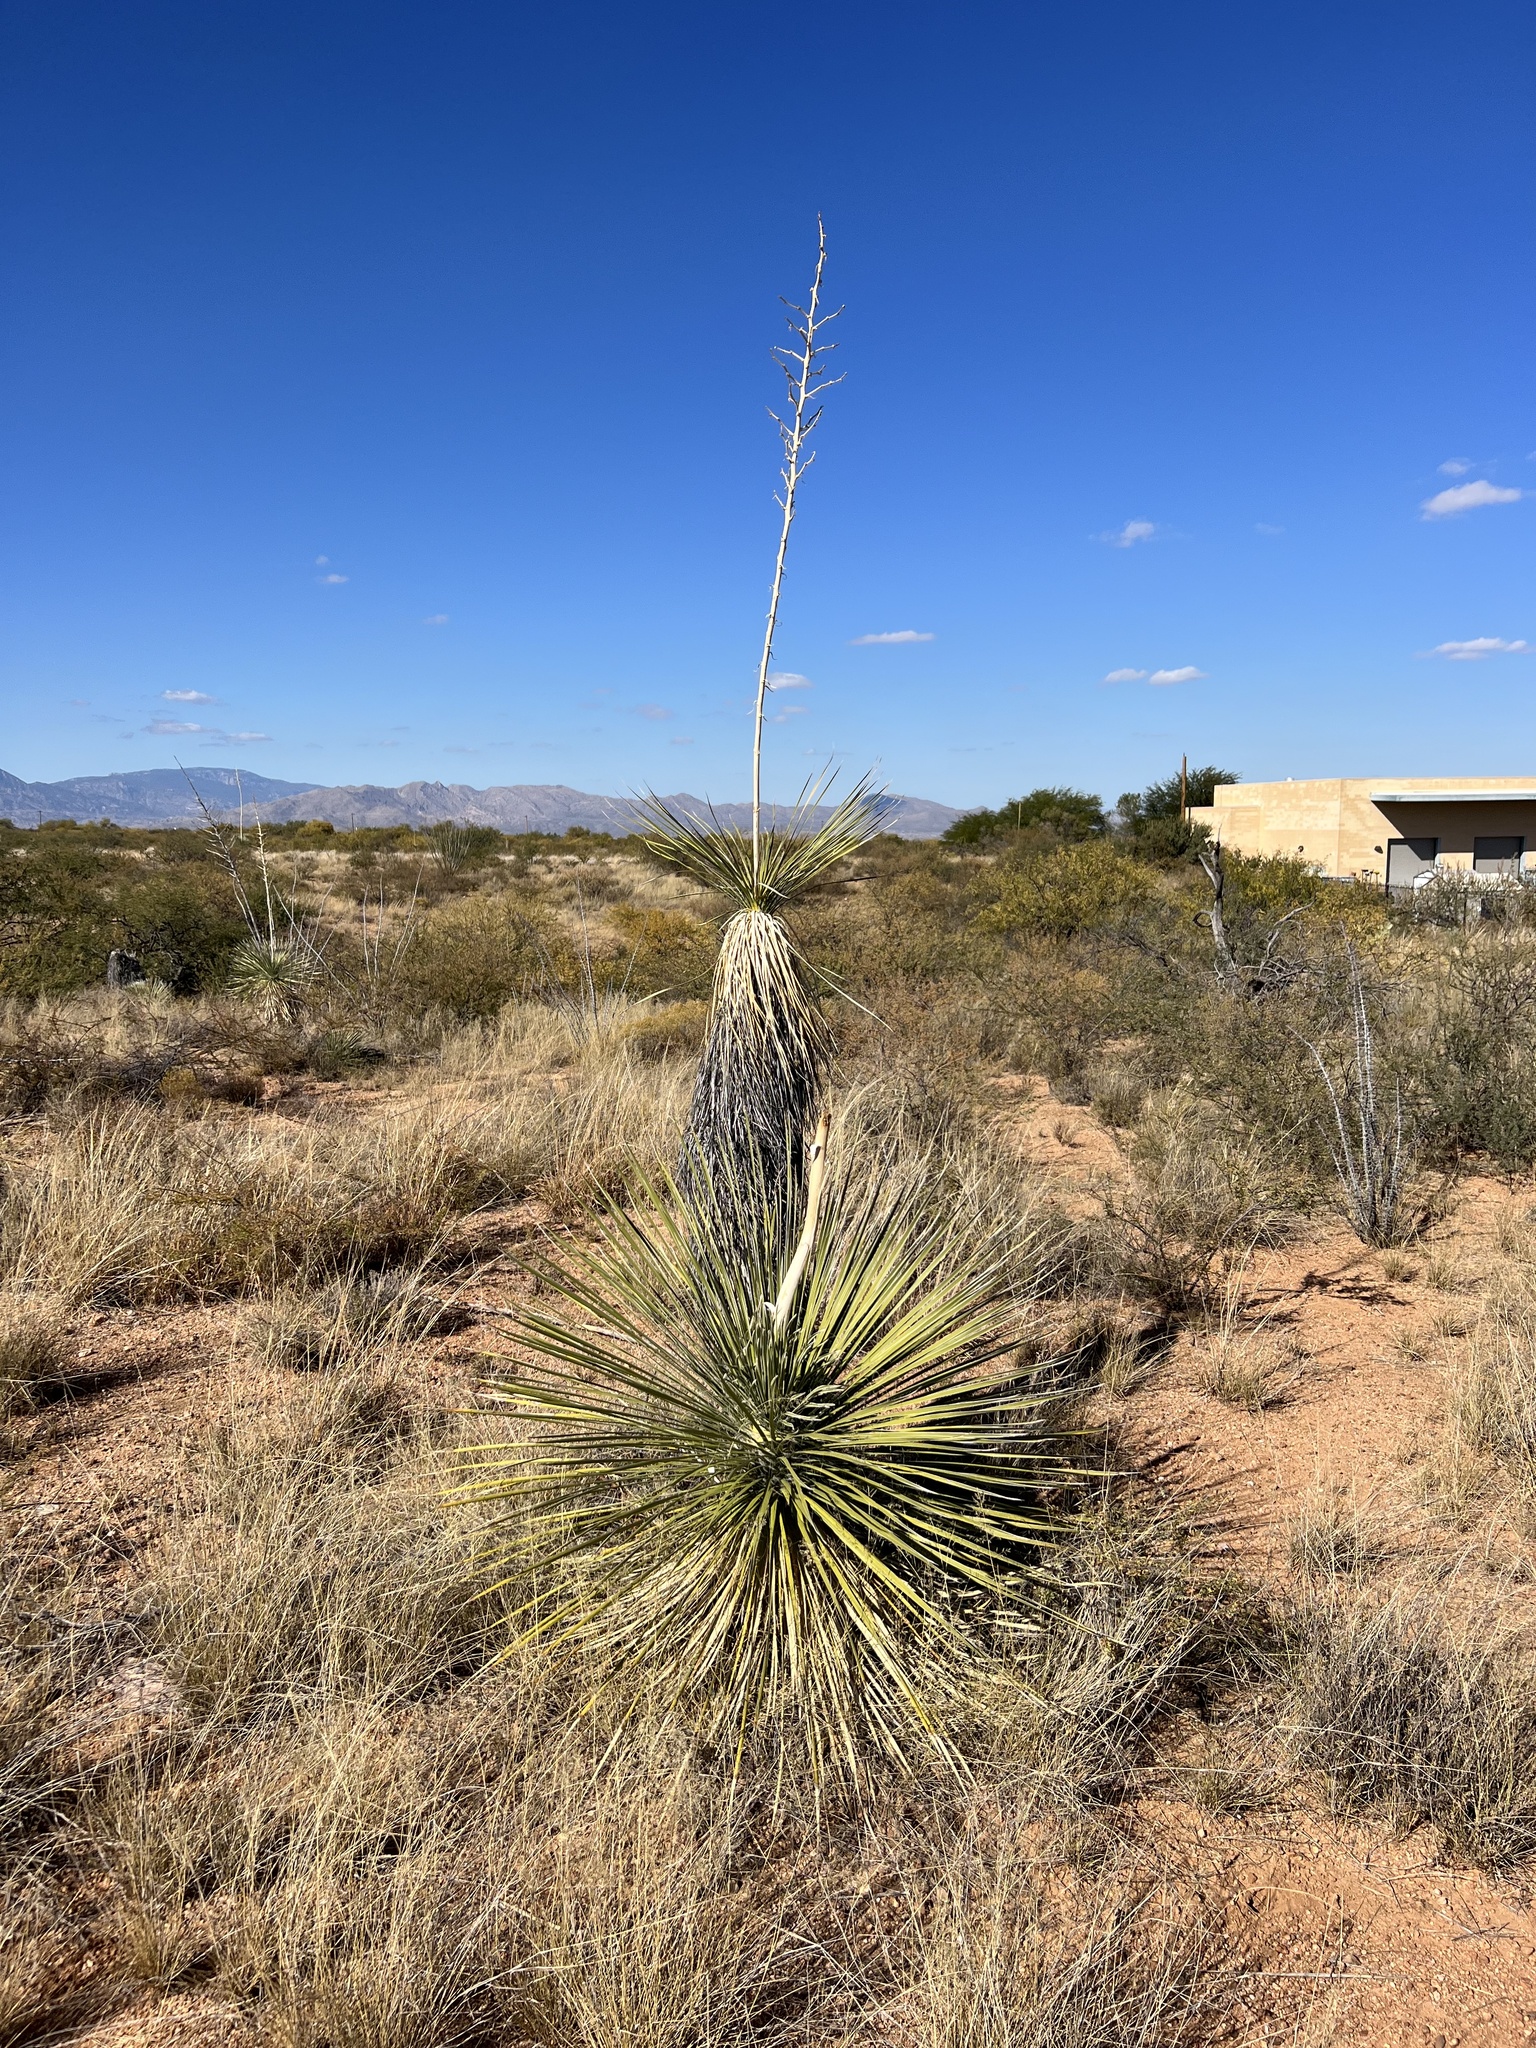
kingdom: Plantae
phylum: Tracheophyta
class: Liliopsida
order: Asparagales
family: Asparagaceae
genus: Yucca
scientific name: Yucca elata
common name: Palmella
